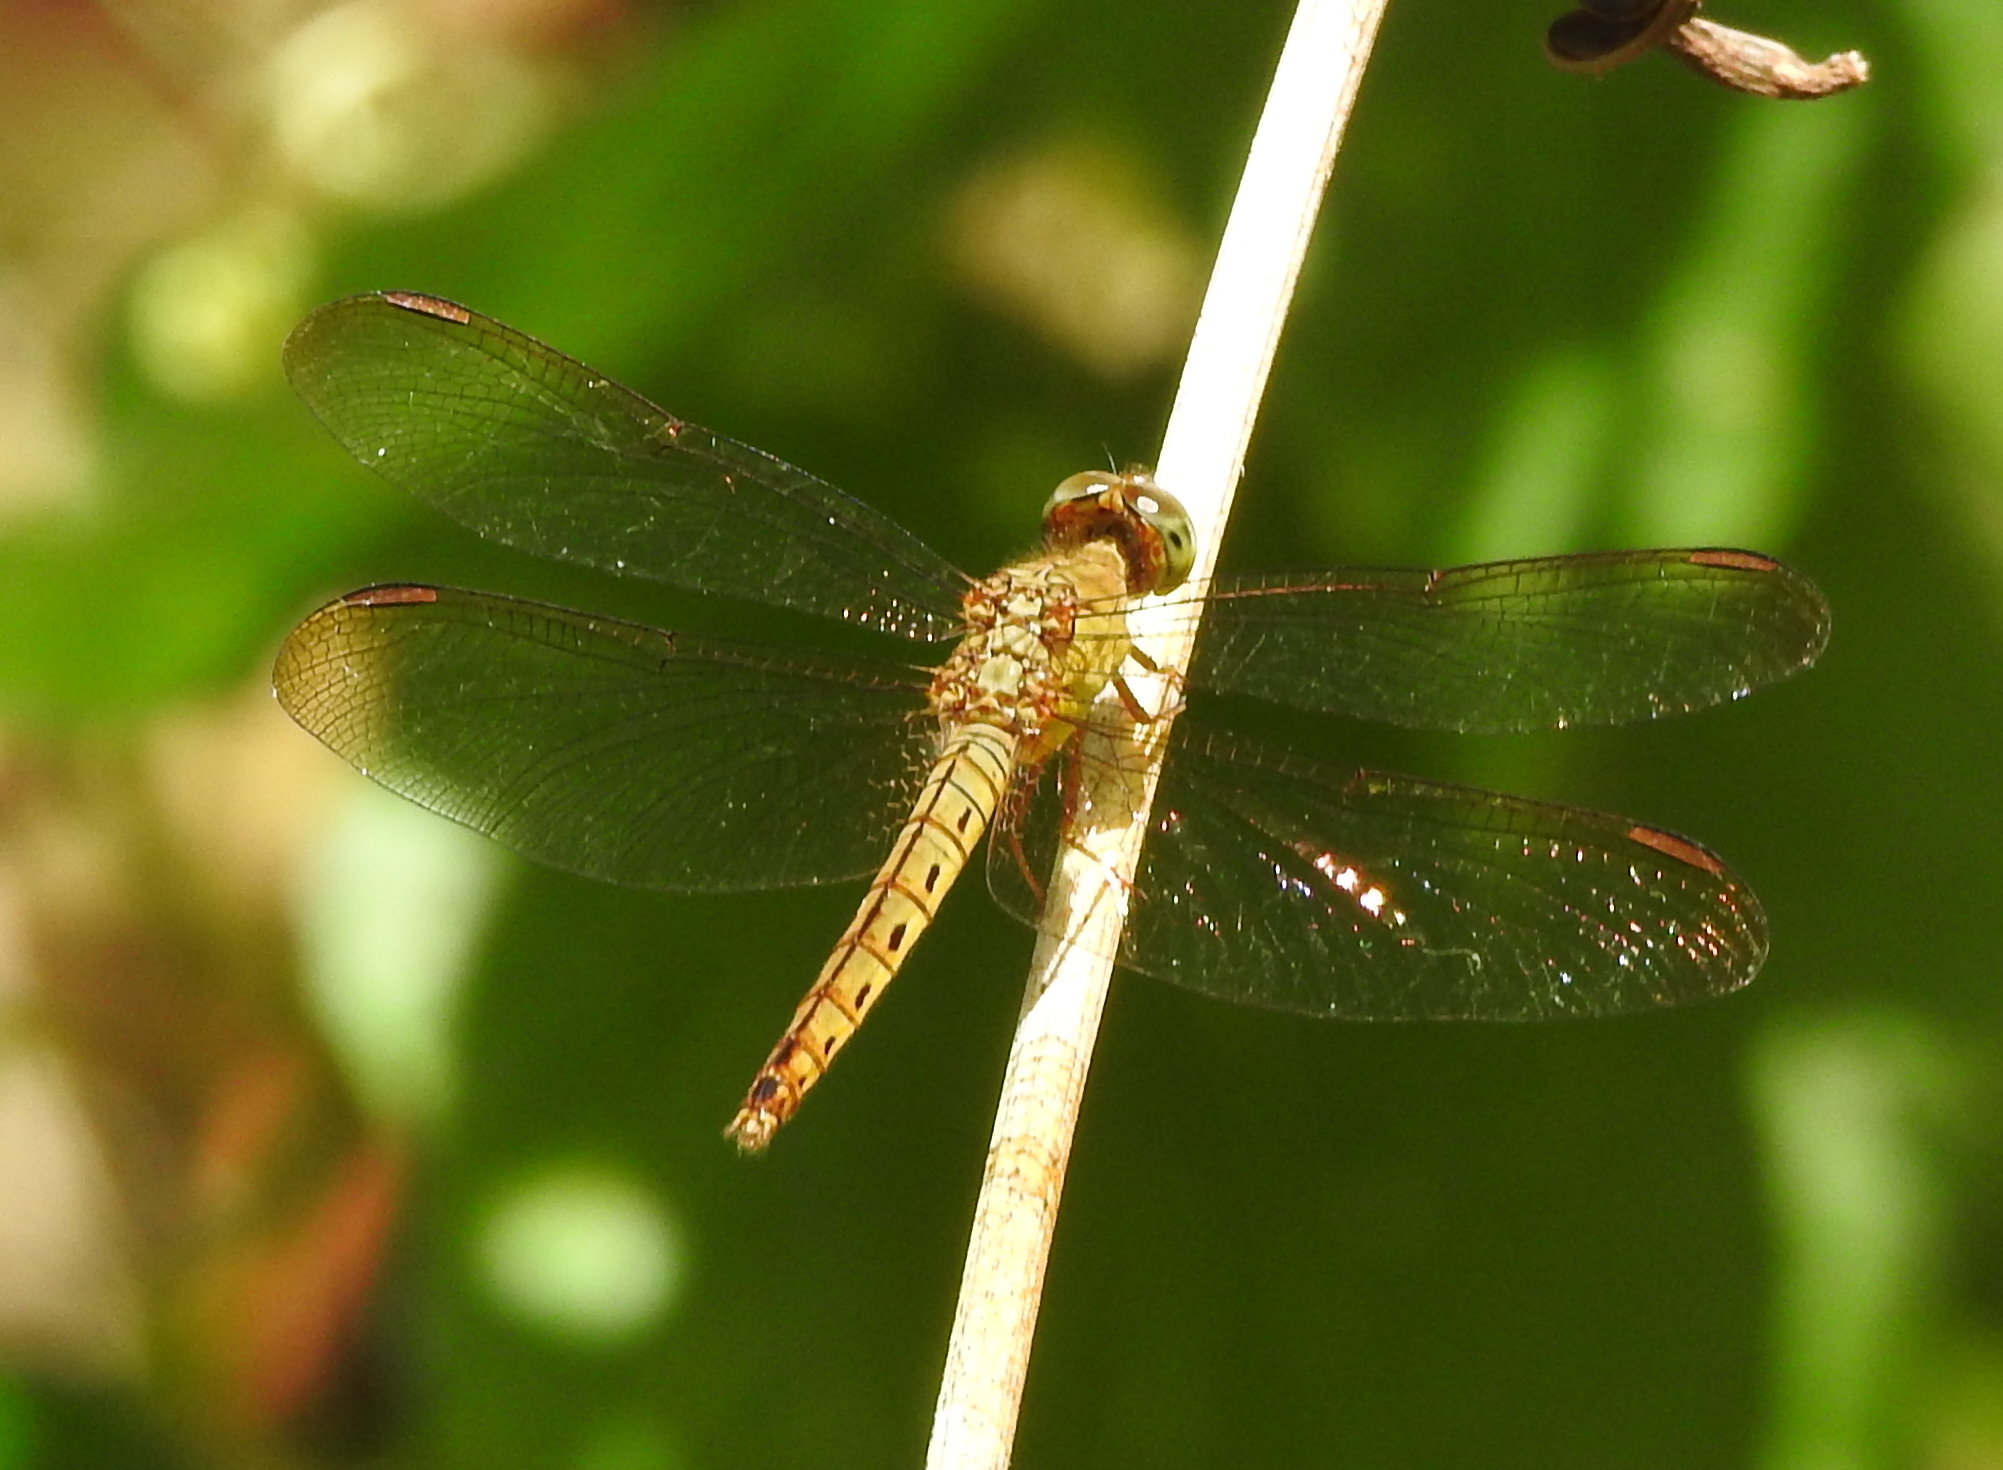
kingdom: Animalia
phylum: Arthropoda
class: Insecta
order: Odonata
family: Libellulidae
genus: Neurothemis
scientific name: Neurothemis fluctuans
